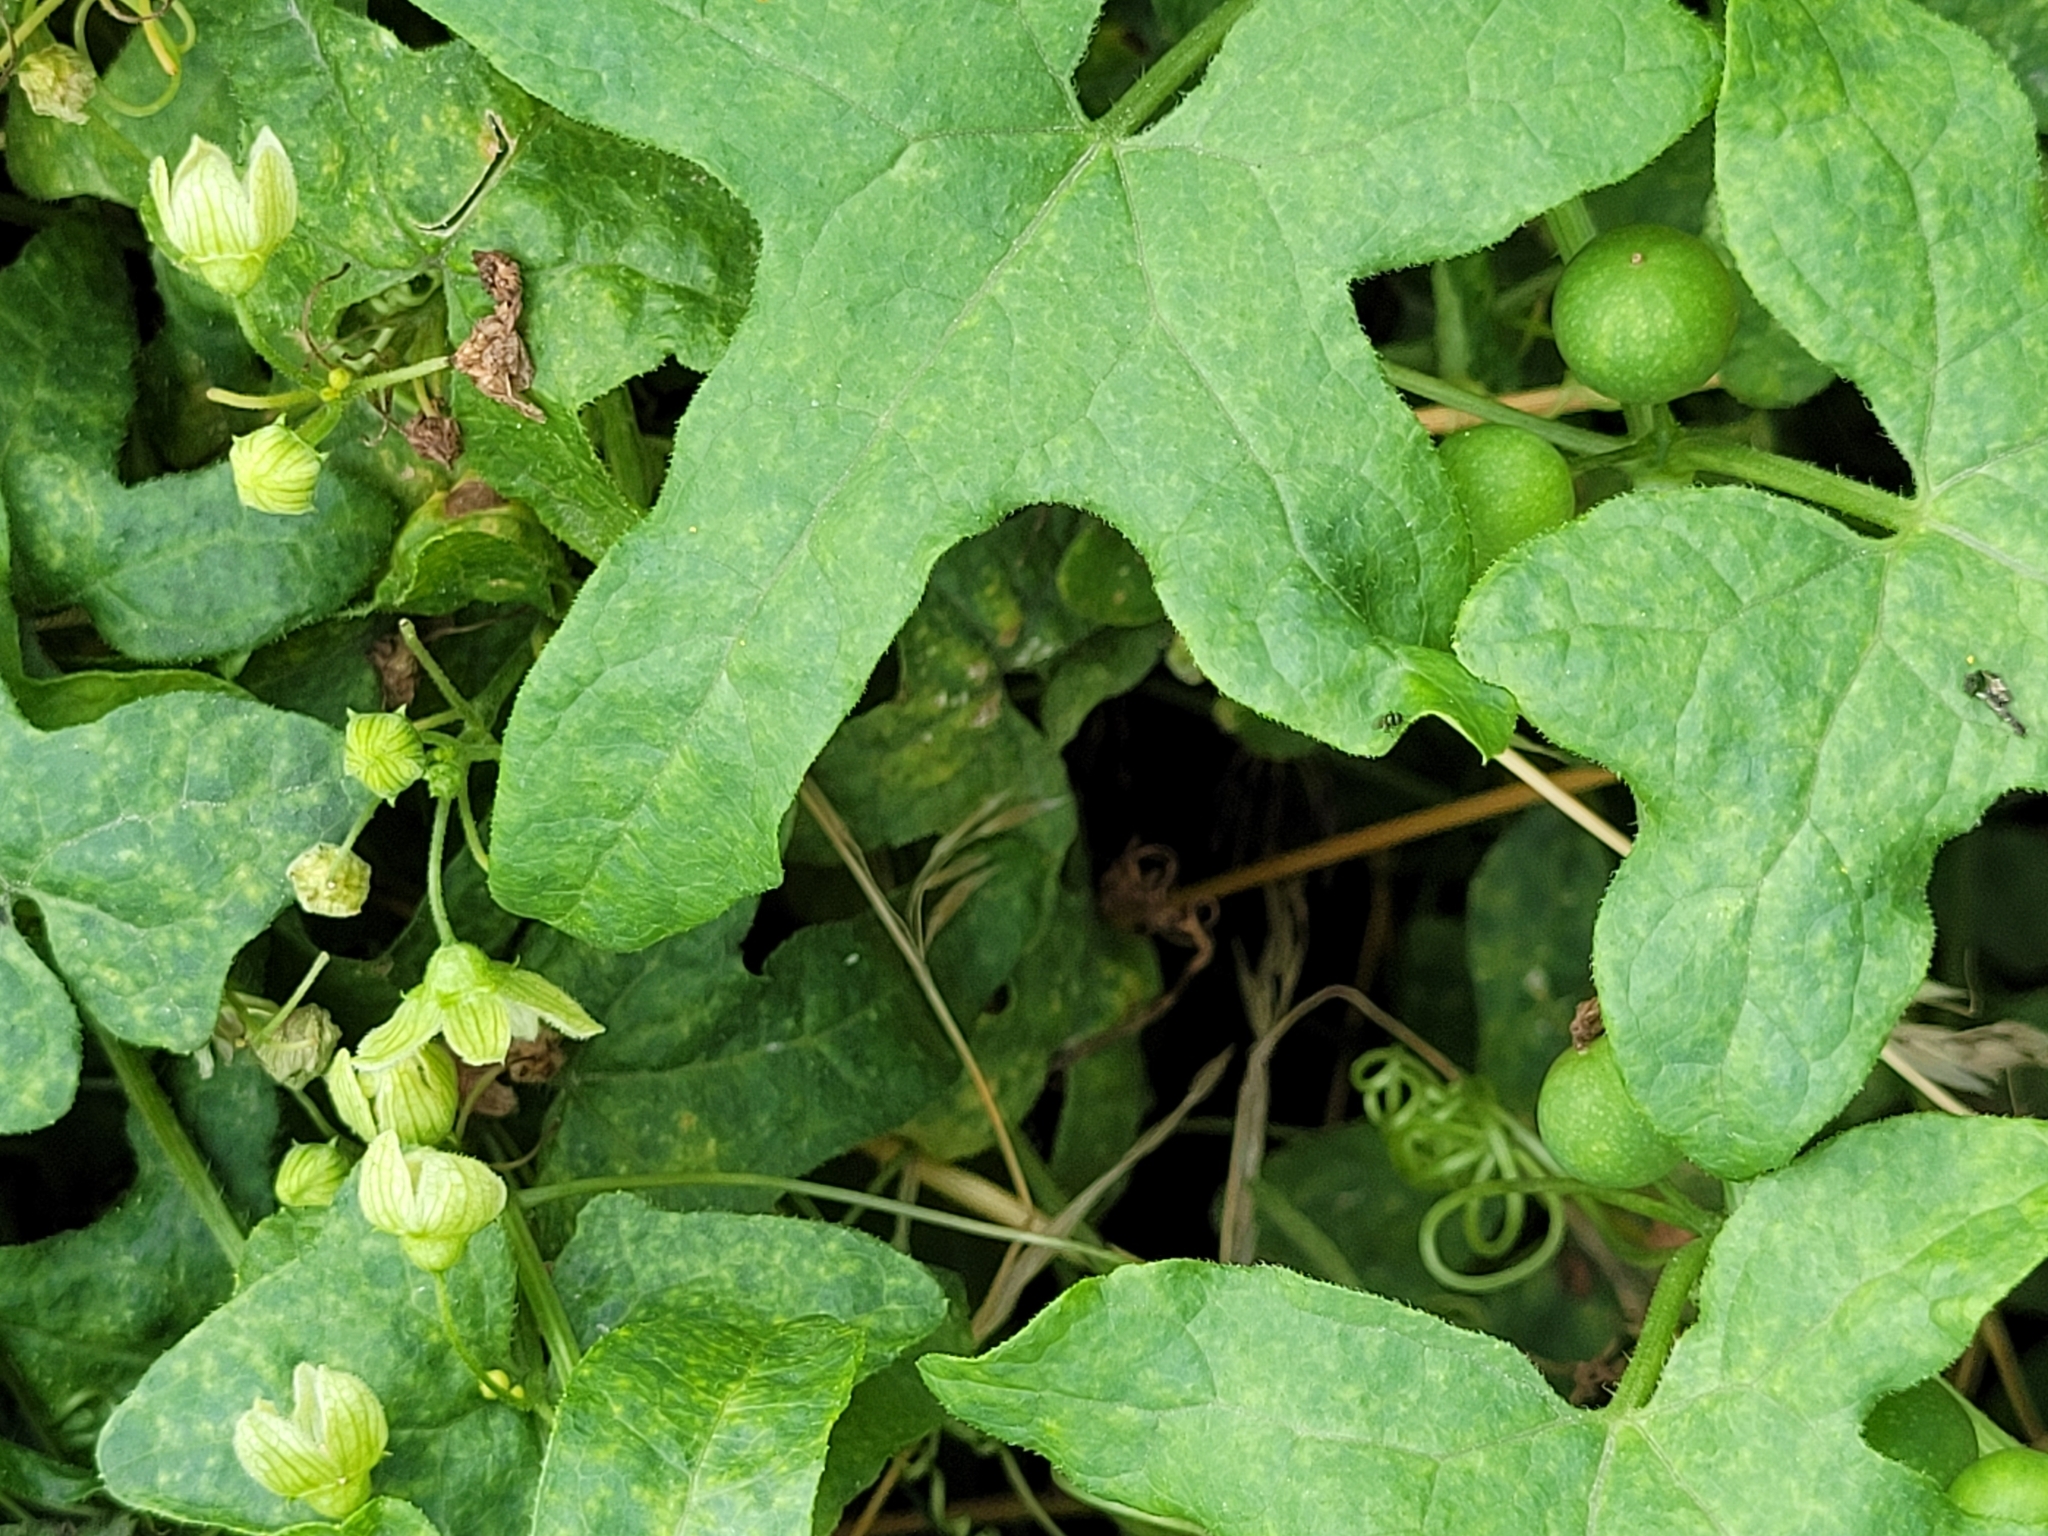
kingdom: Plantae
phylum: Tracheophyta
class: Magnoliopsida
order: Cucurbitales
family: Cucurbitaceae
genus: Bryonia
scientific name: Bryonia cretica
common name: Cretan bryony
